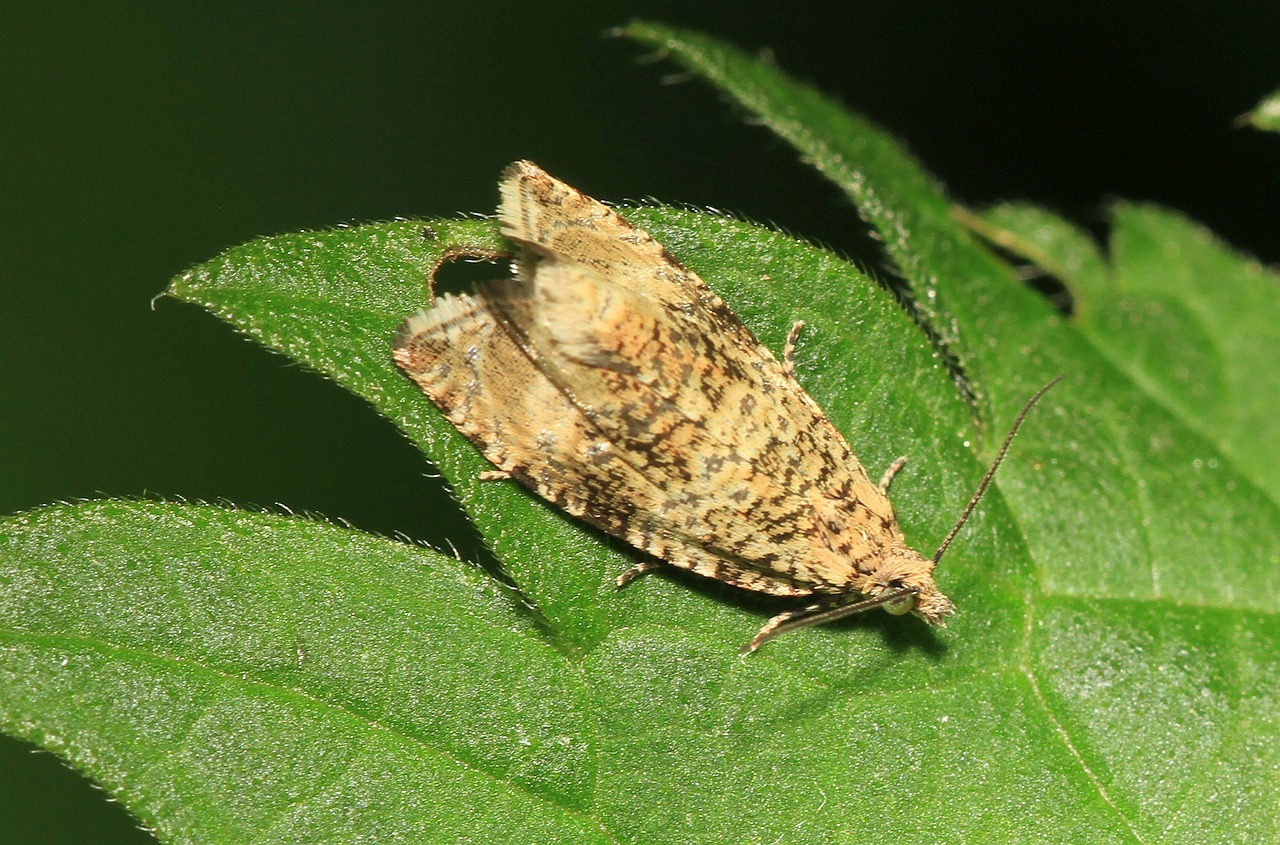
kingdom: Animalia
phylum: Arthropoda
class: Insecta
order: Lepidoptera
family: Tortricidae
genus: Syricoris
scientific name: Syricoris lacunana
